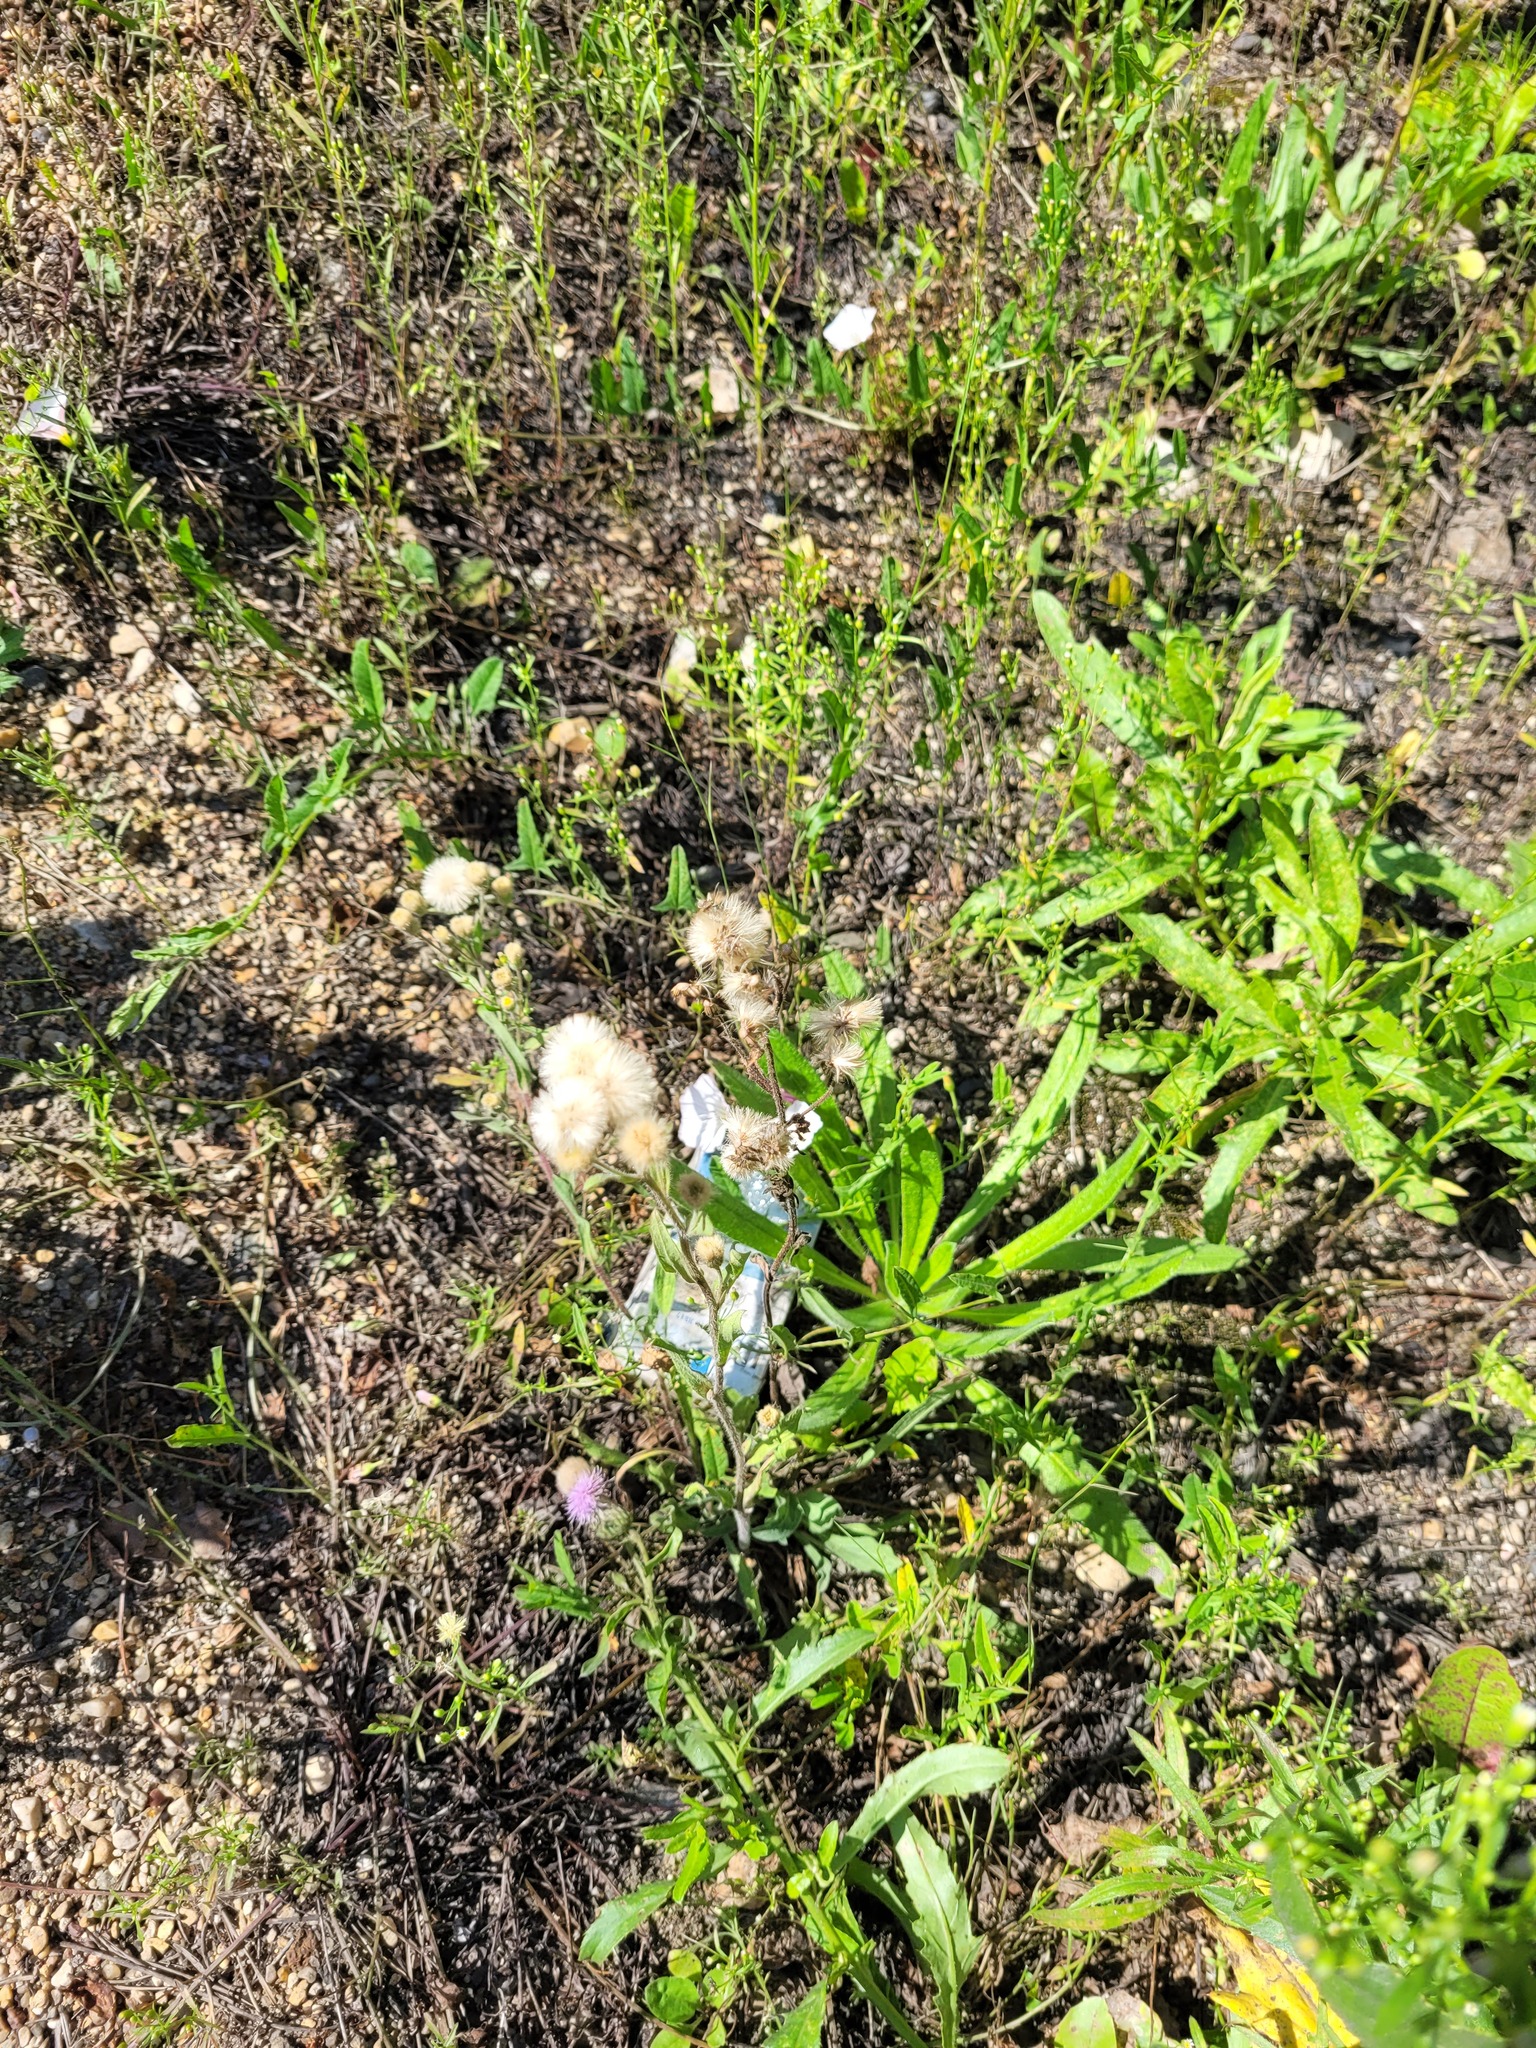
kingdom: Plantae
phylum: Tracheophyta
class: Magnoliopsida
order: Asterales
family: Asteraceae
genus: Erigeron
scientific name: Erigeron acris
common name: Blue fleabane
